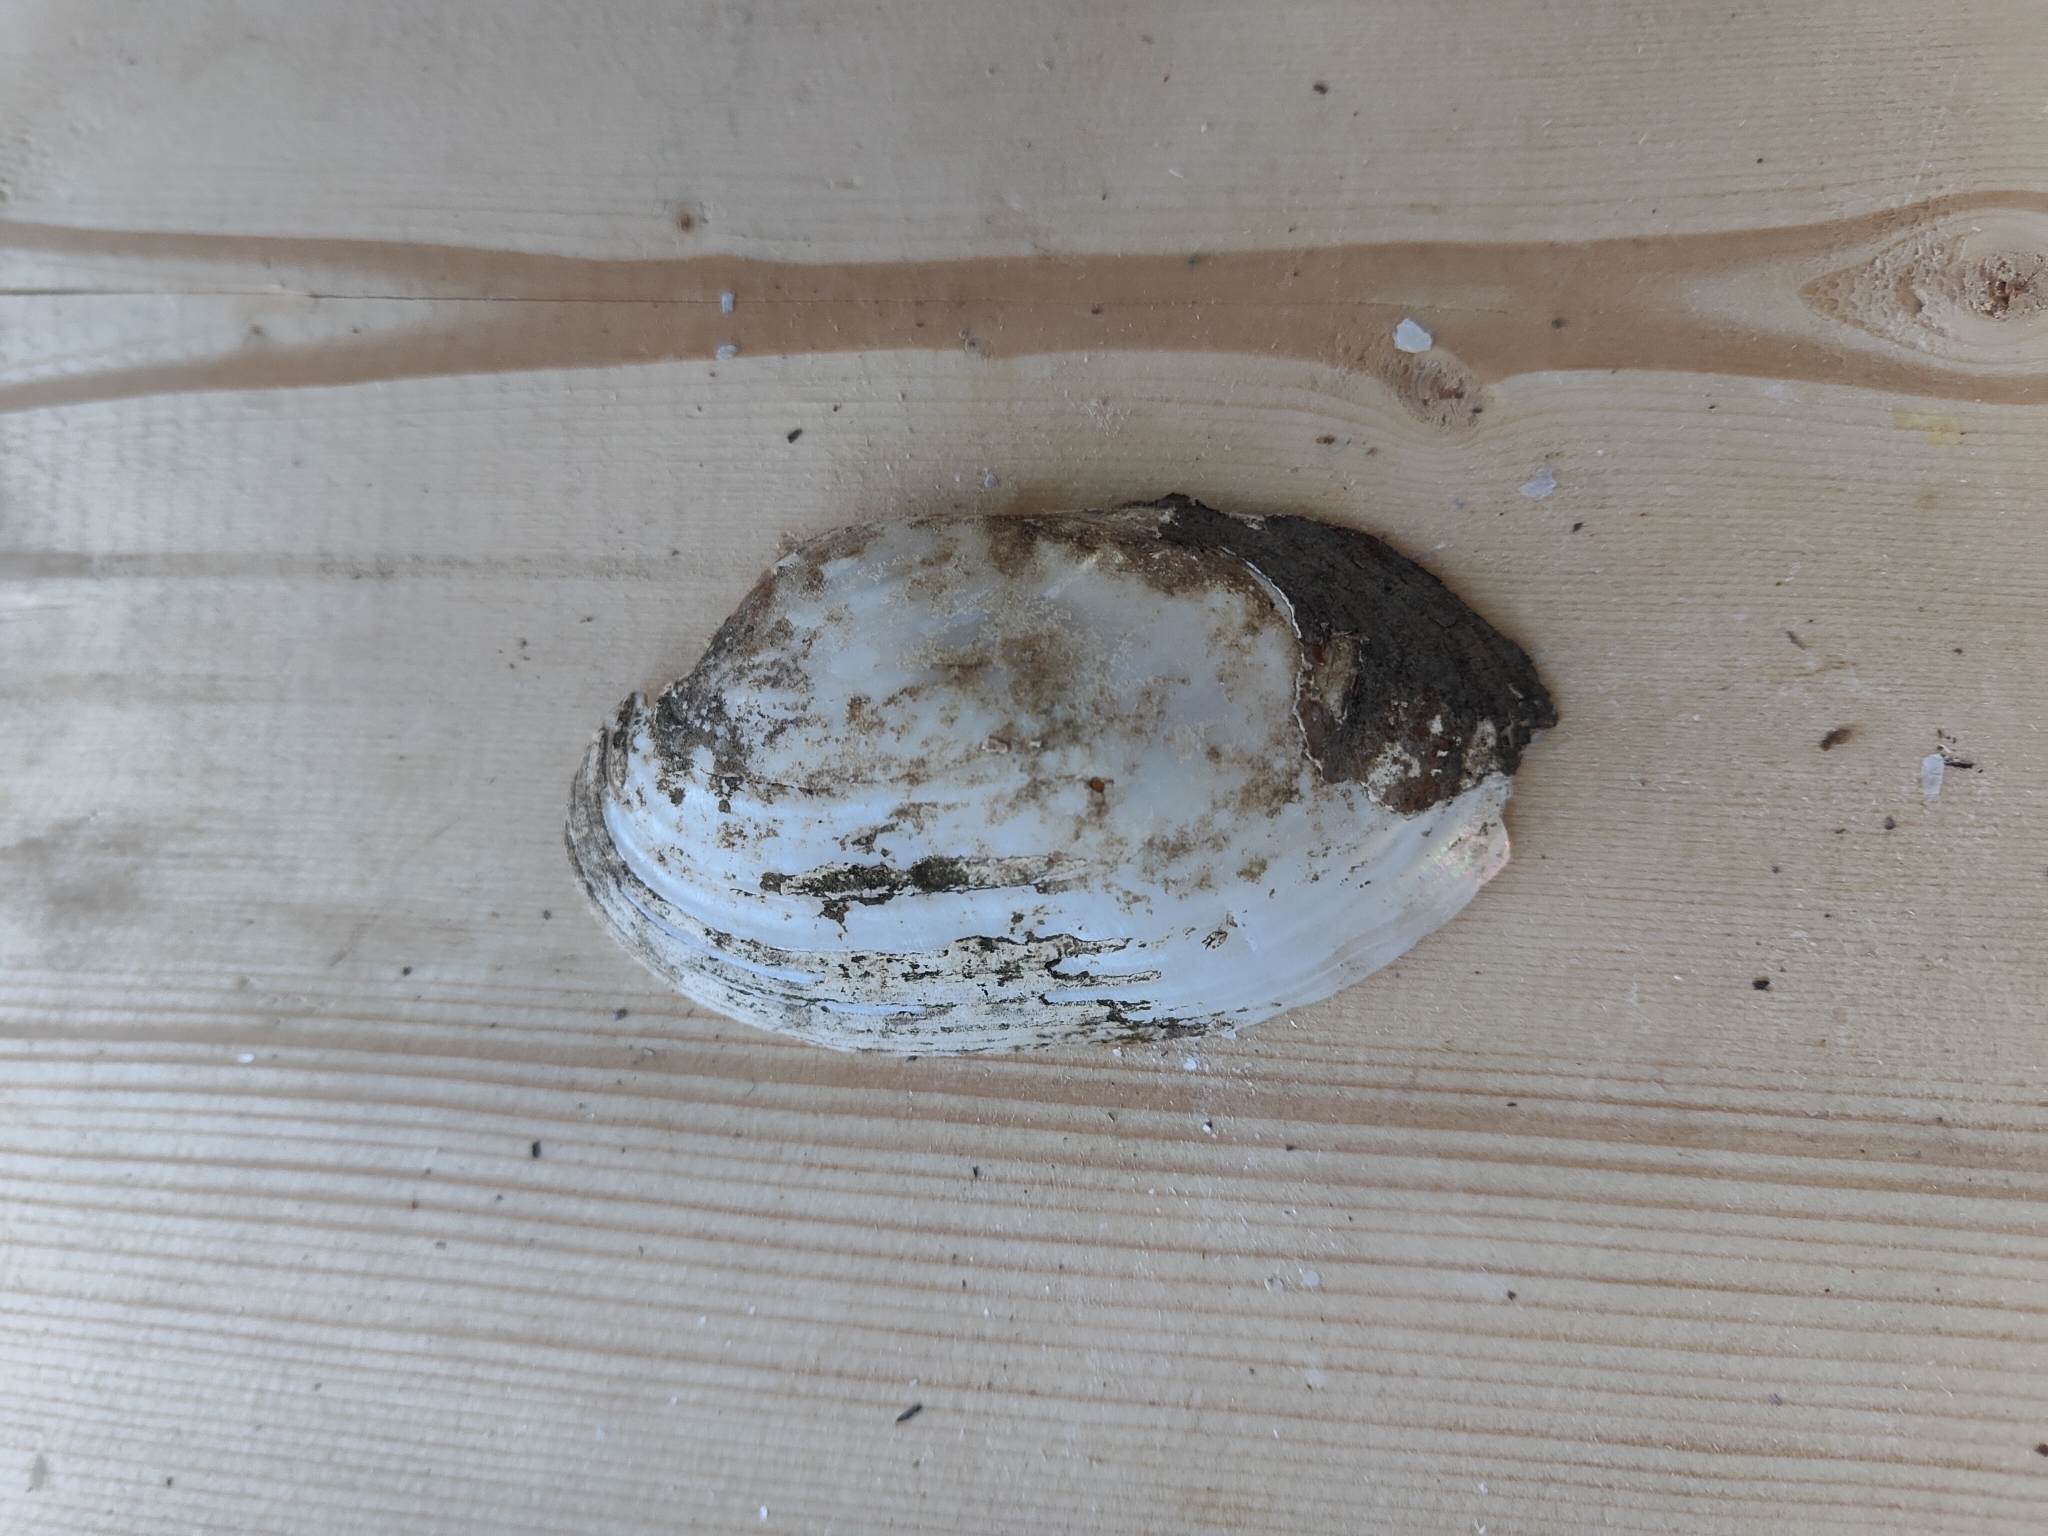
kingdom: Animalia
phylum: Mollusca
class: Bivalvia
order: Unionida
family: Unionidae
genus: Lampsilis
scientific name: Lampsilis siliquoidea
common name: Fatmucket
